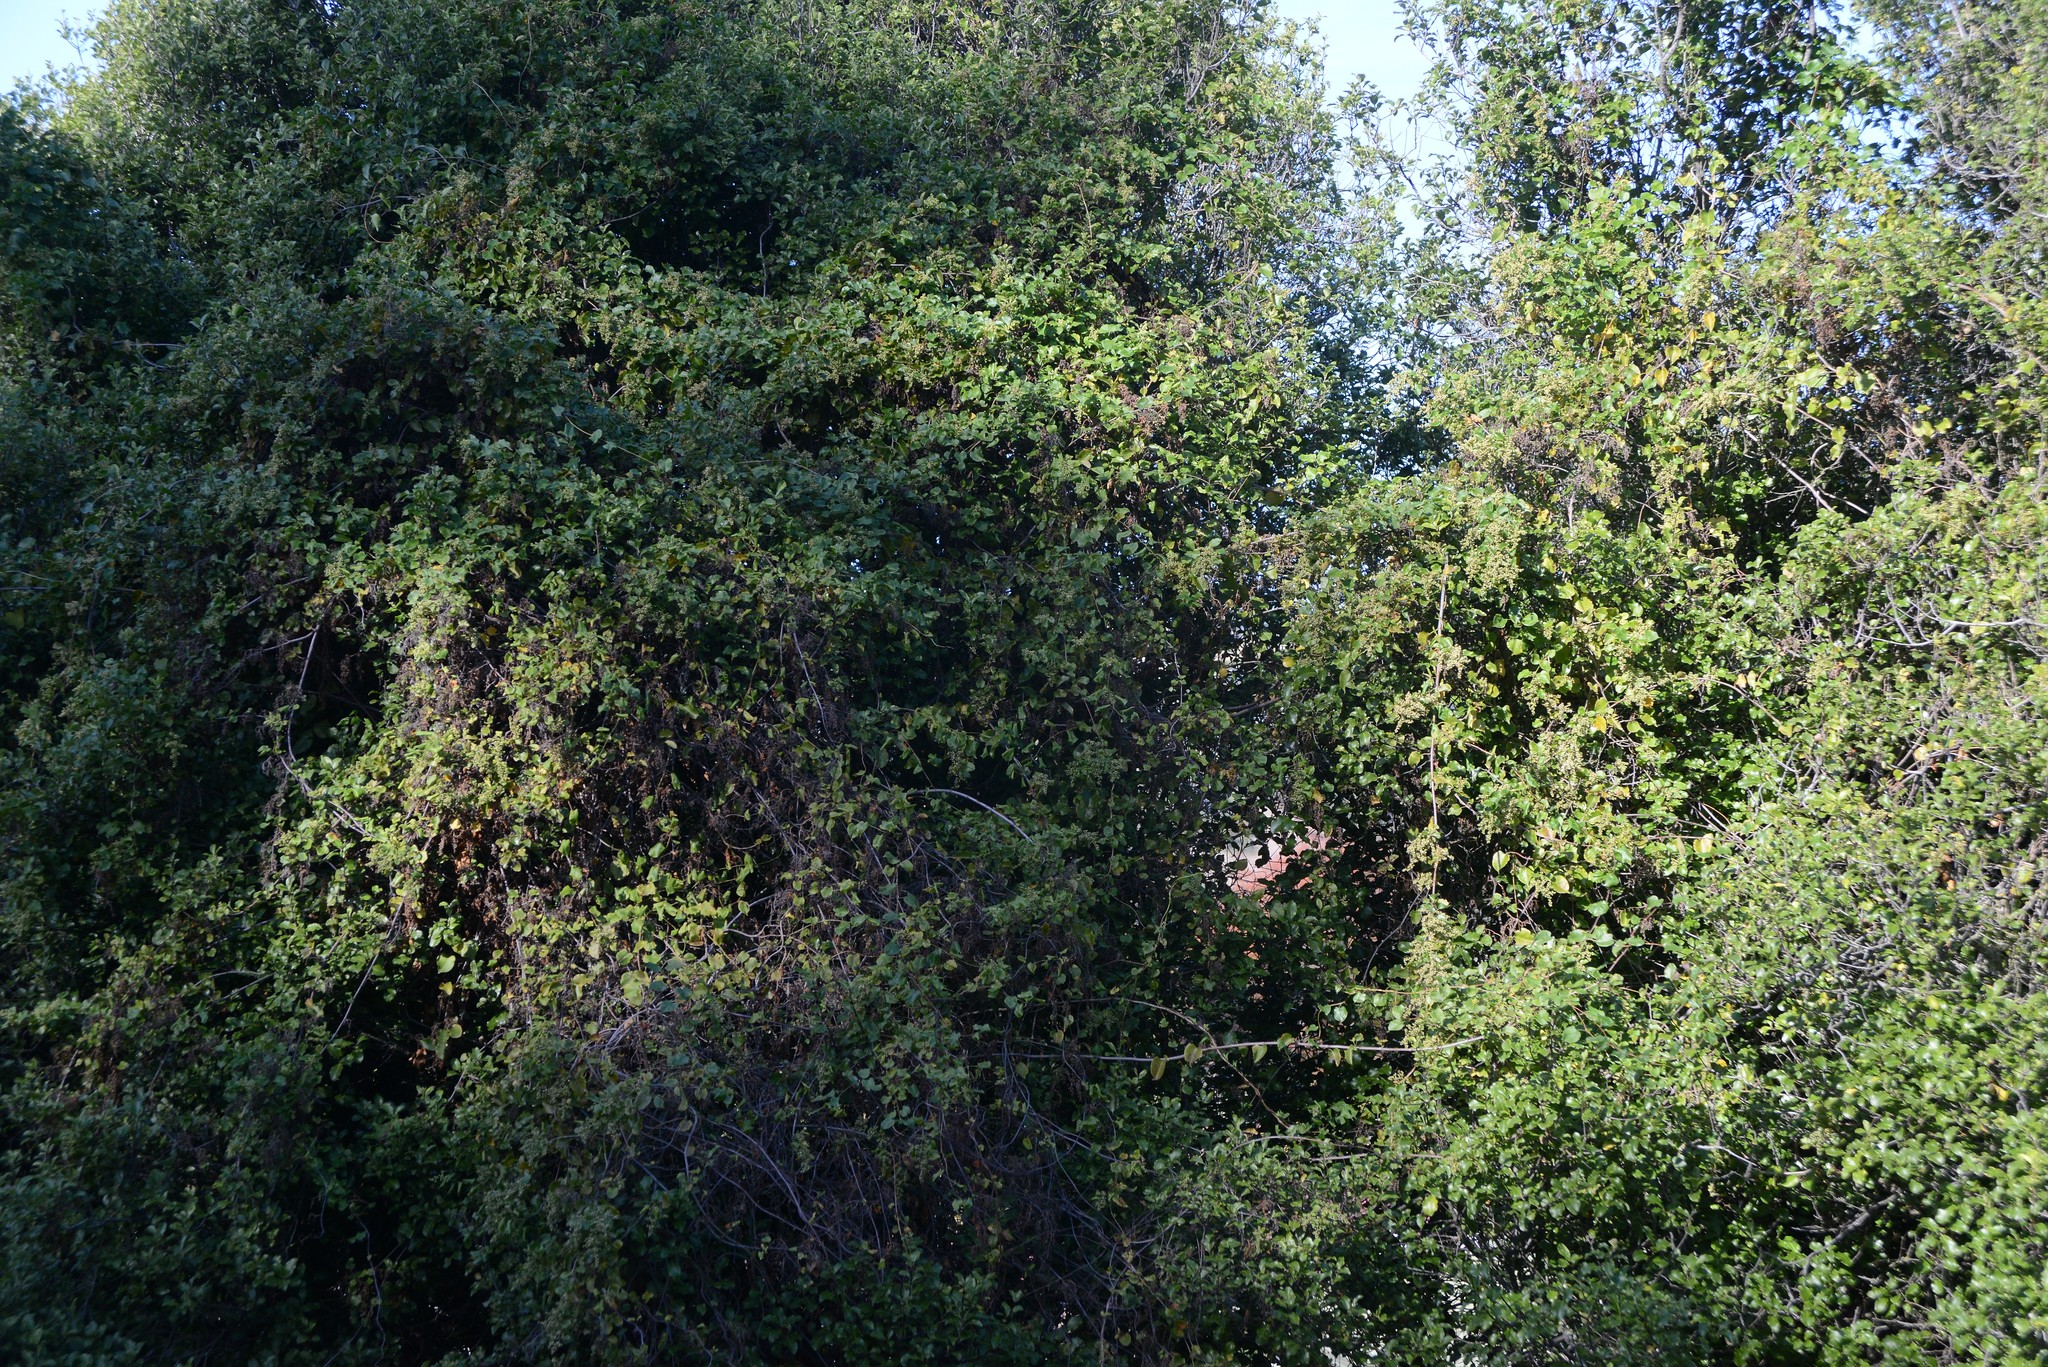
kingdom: Plantae
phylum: Tracheophyta
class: Magnoliopsida
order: Caryophyllales
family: Polygonaceae
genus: Muehlenbeckia
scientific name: Muehlenbeckia australis
